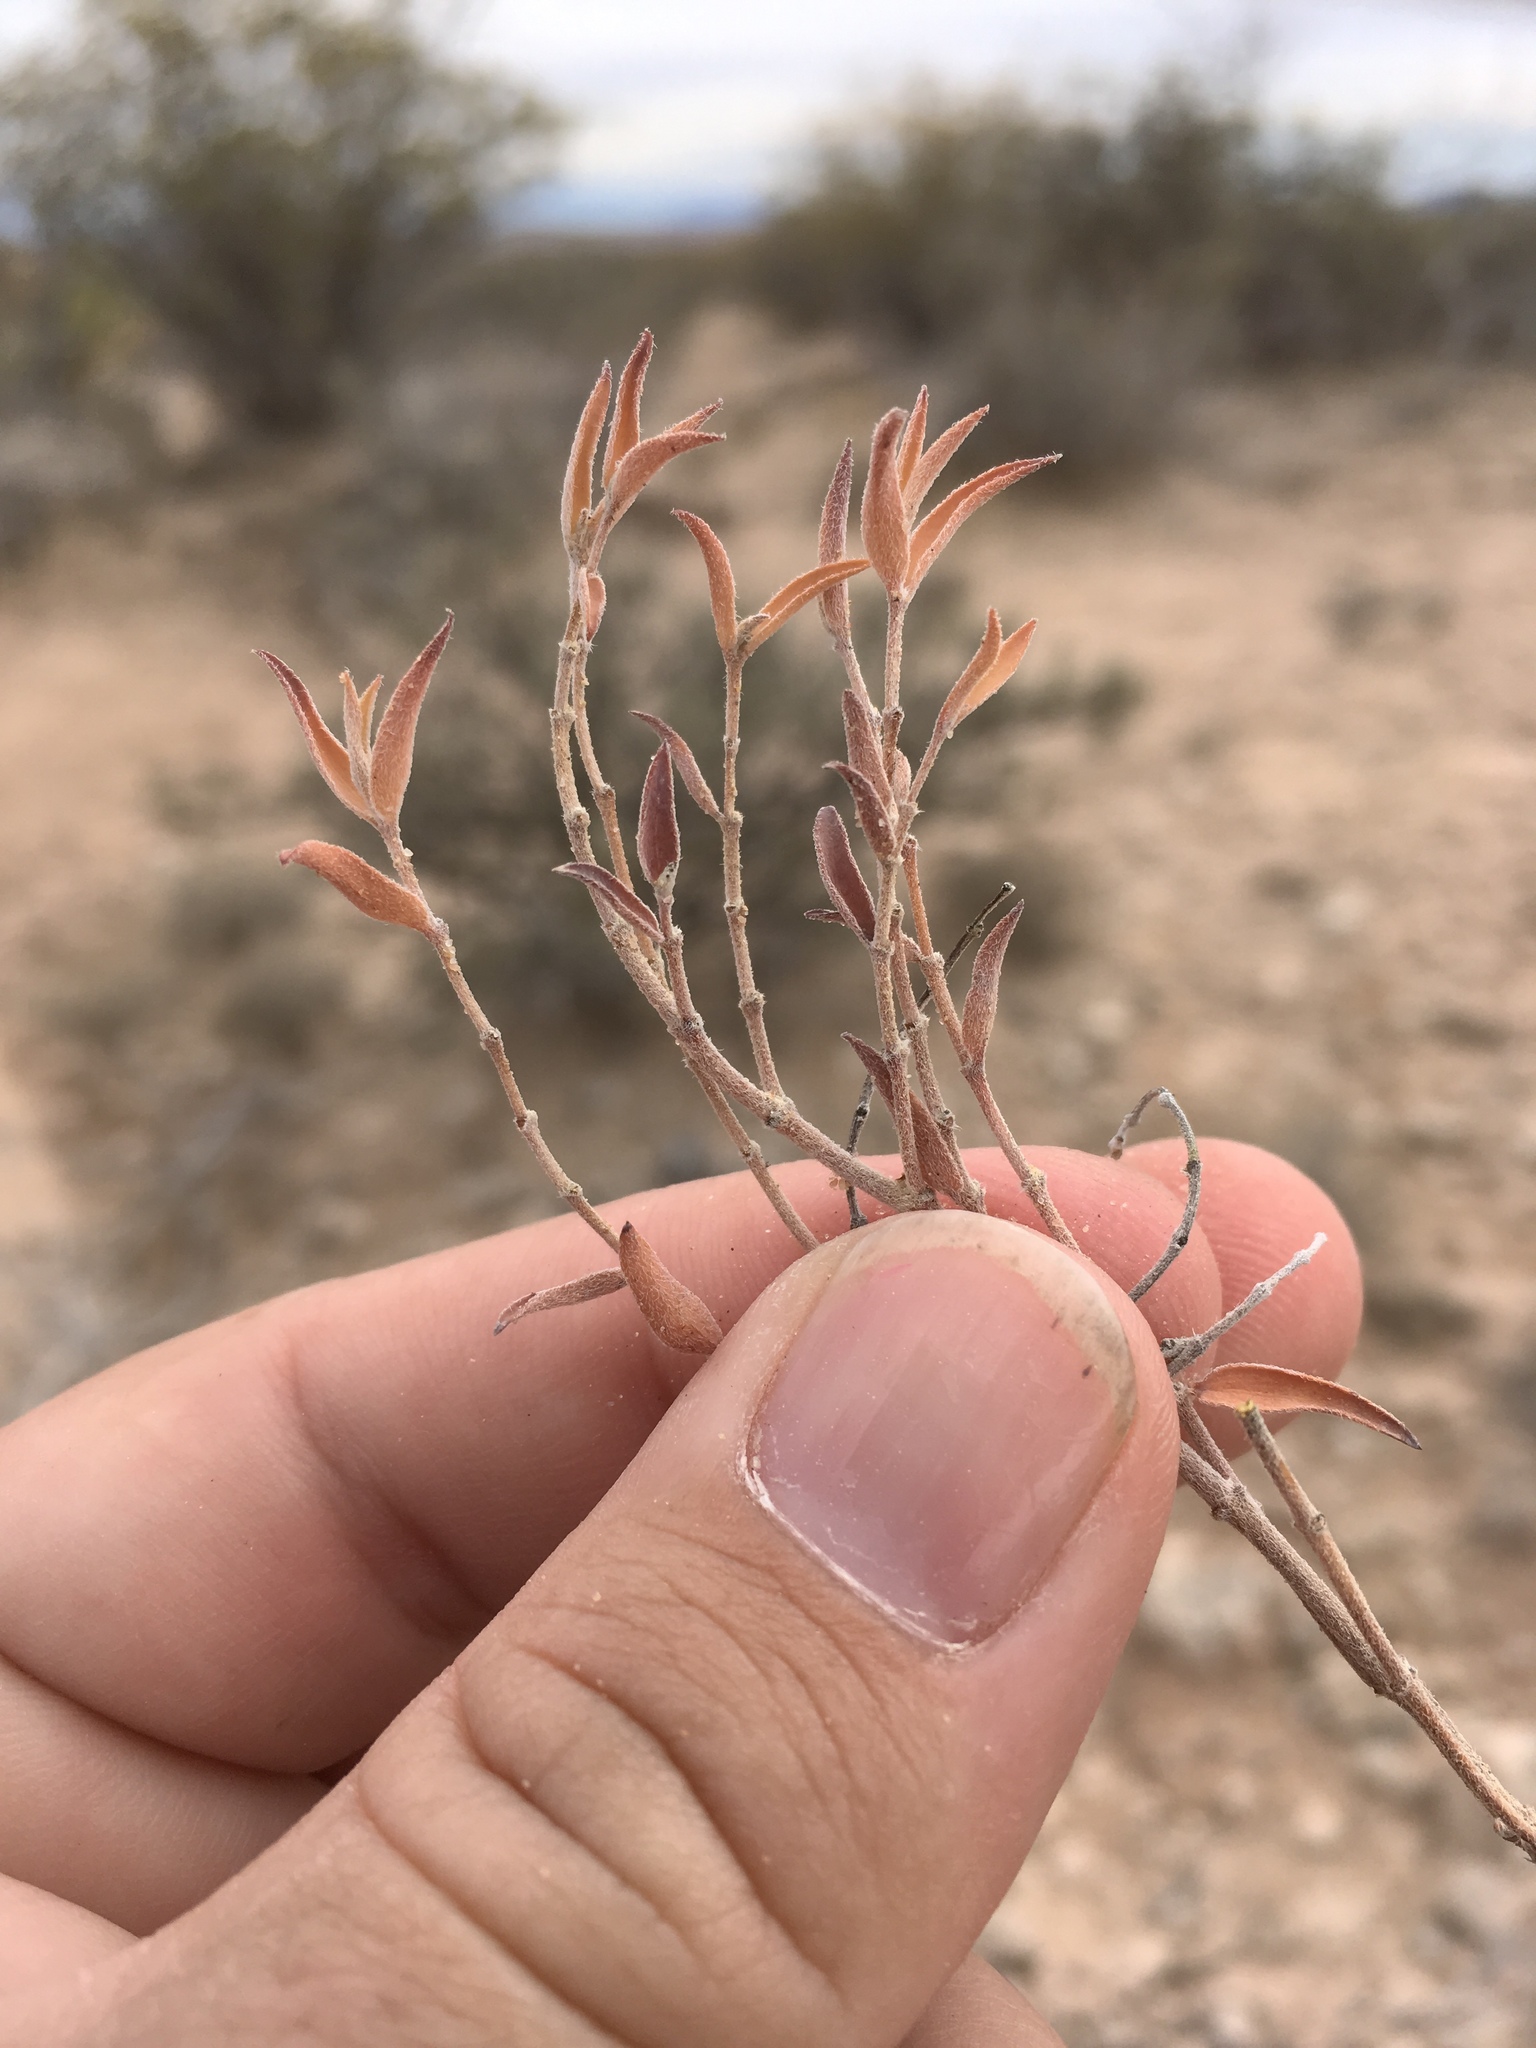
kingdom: Plantae
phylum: Tracheophyta
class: Magnoliopsida
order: Malpighiales
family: Euphorbiaceae
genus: Euphorbia
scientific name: Euphorbia acuta
